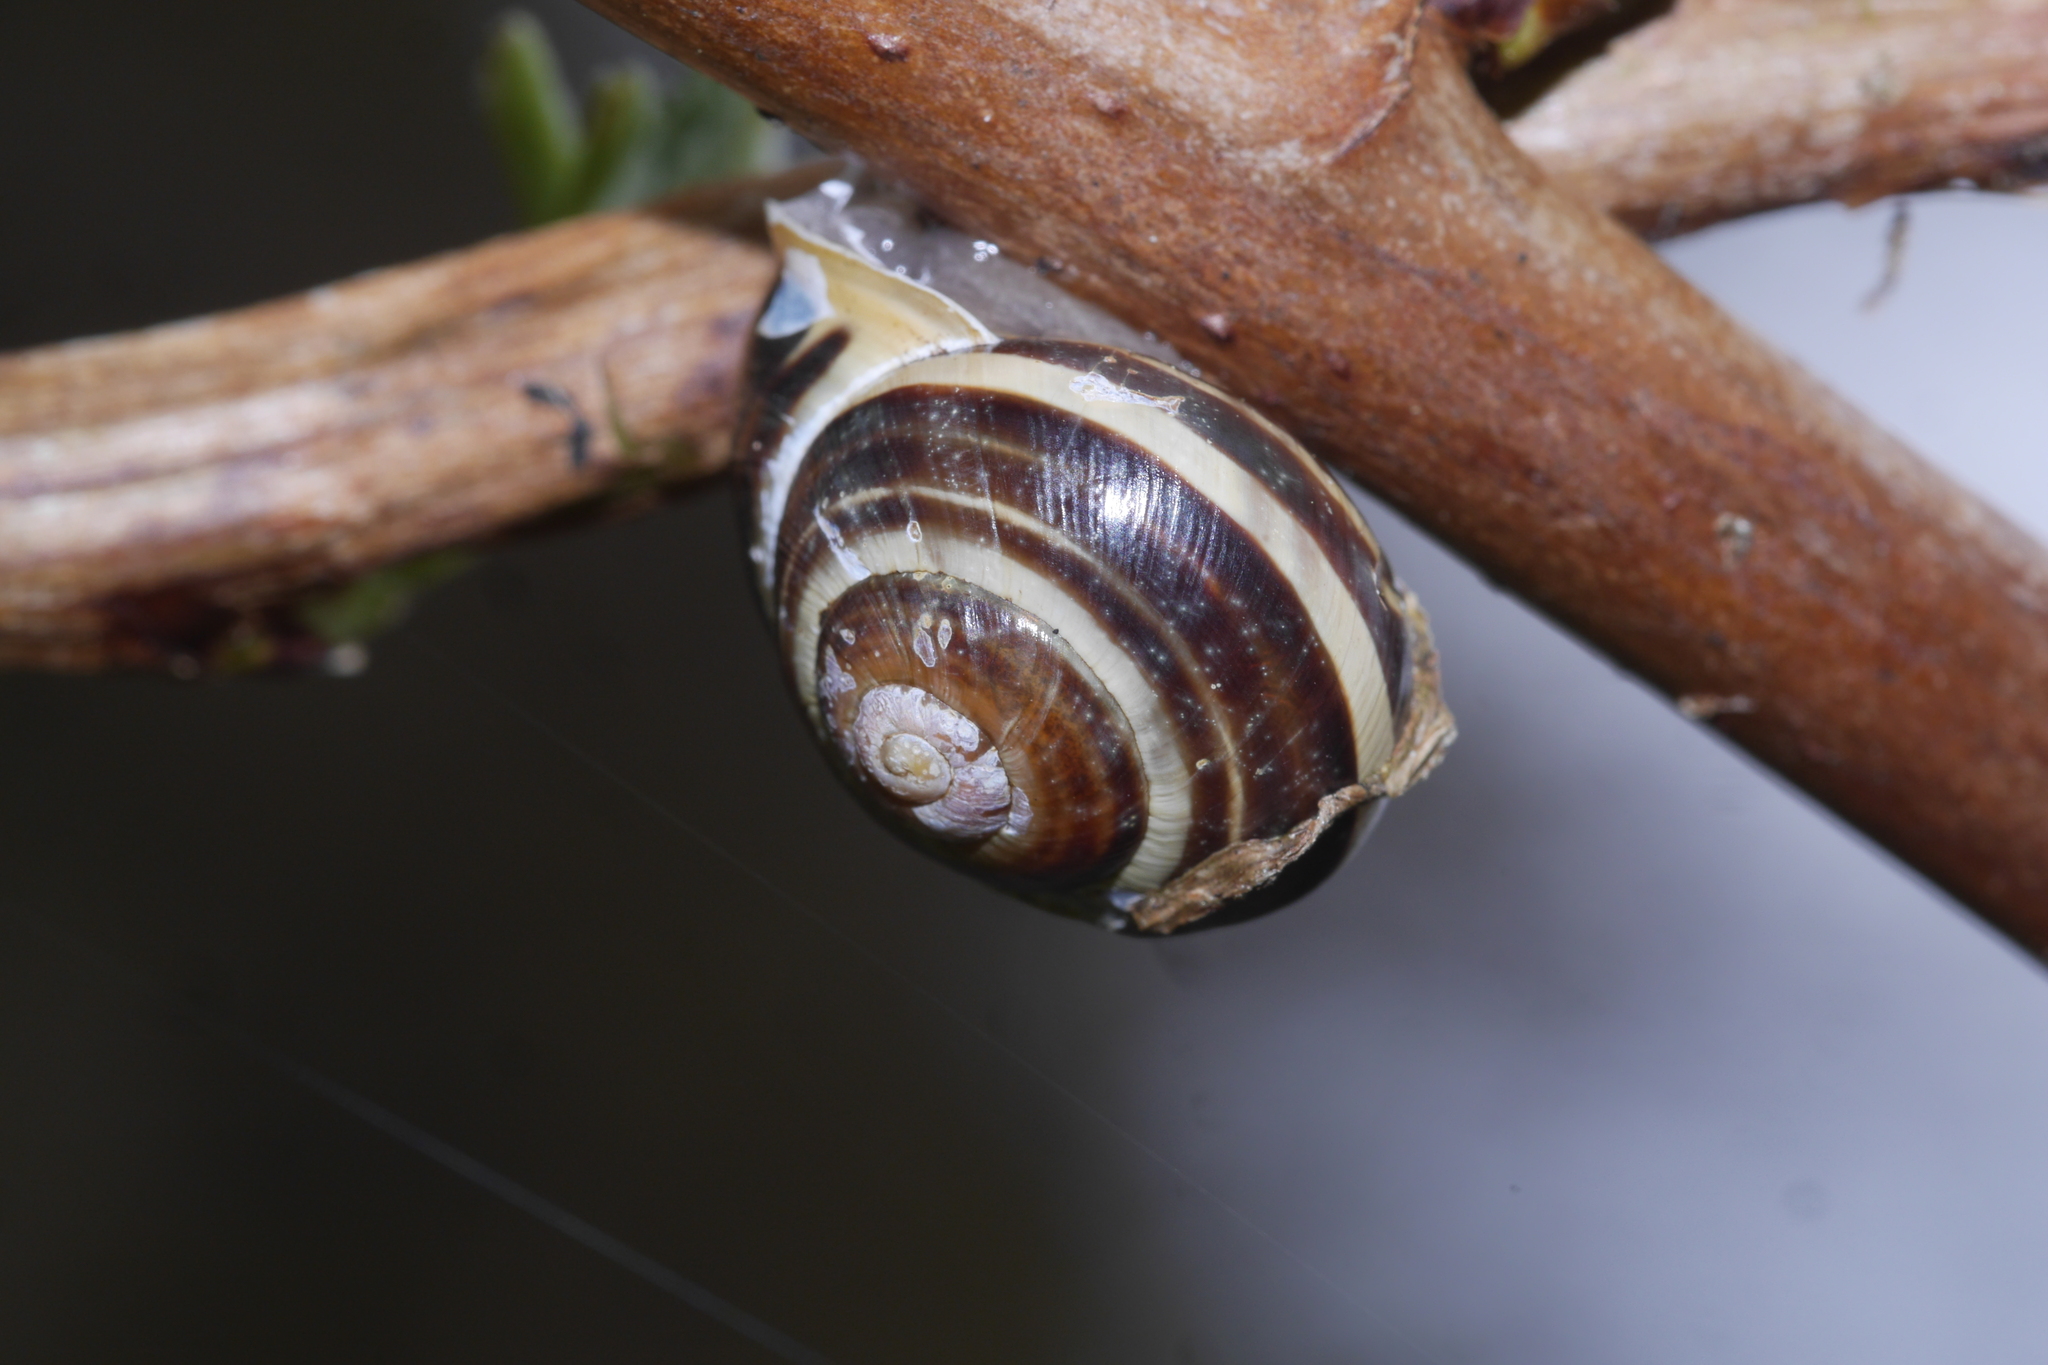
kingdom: Animalia
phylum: Mollusca
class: Gastropoda
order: Stylommatophora
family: Helicidae
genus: Cepaea
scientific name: Cepaea hortensis
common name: White-lip gardensnail
